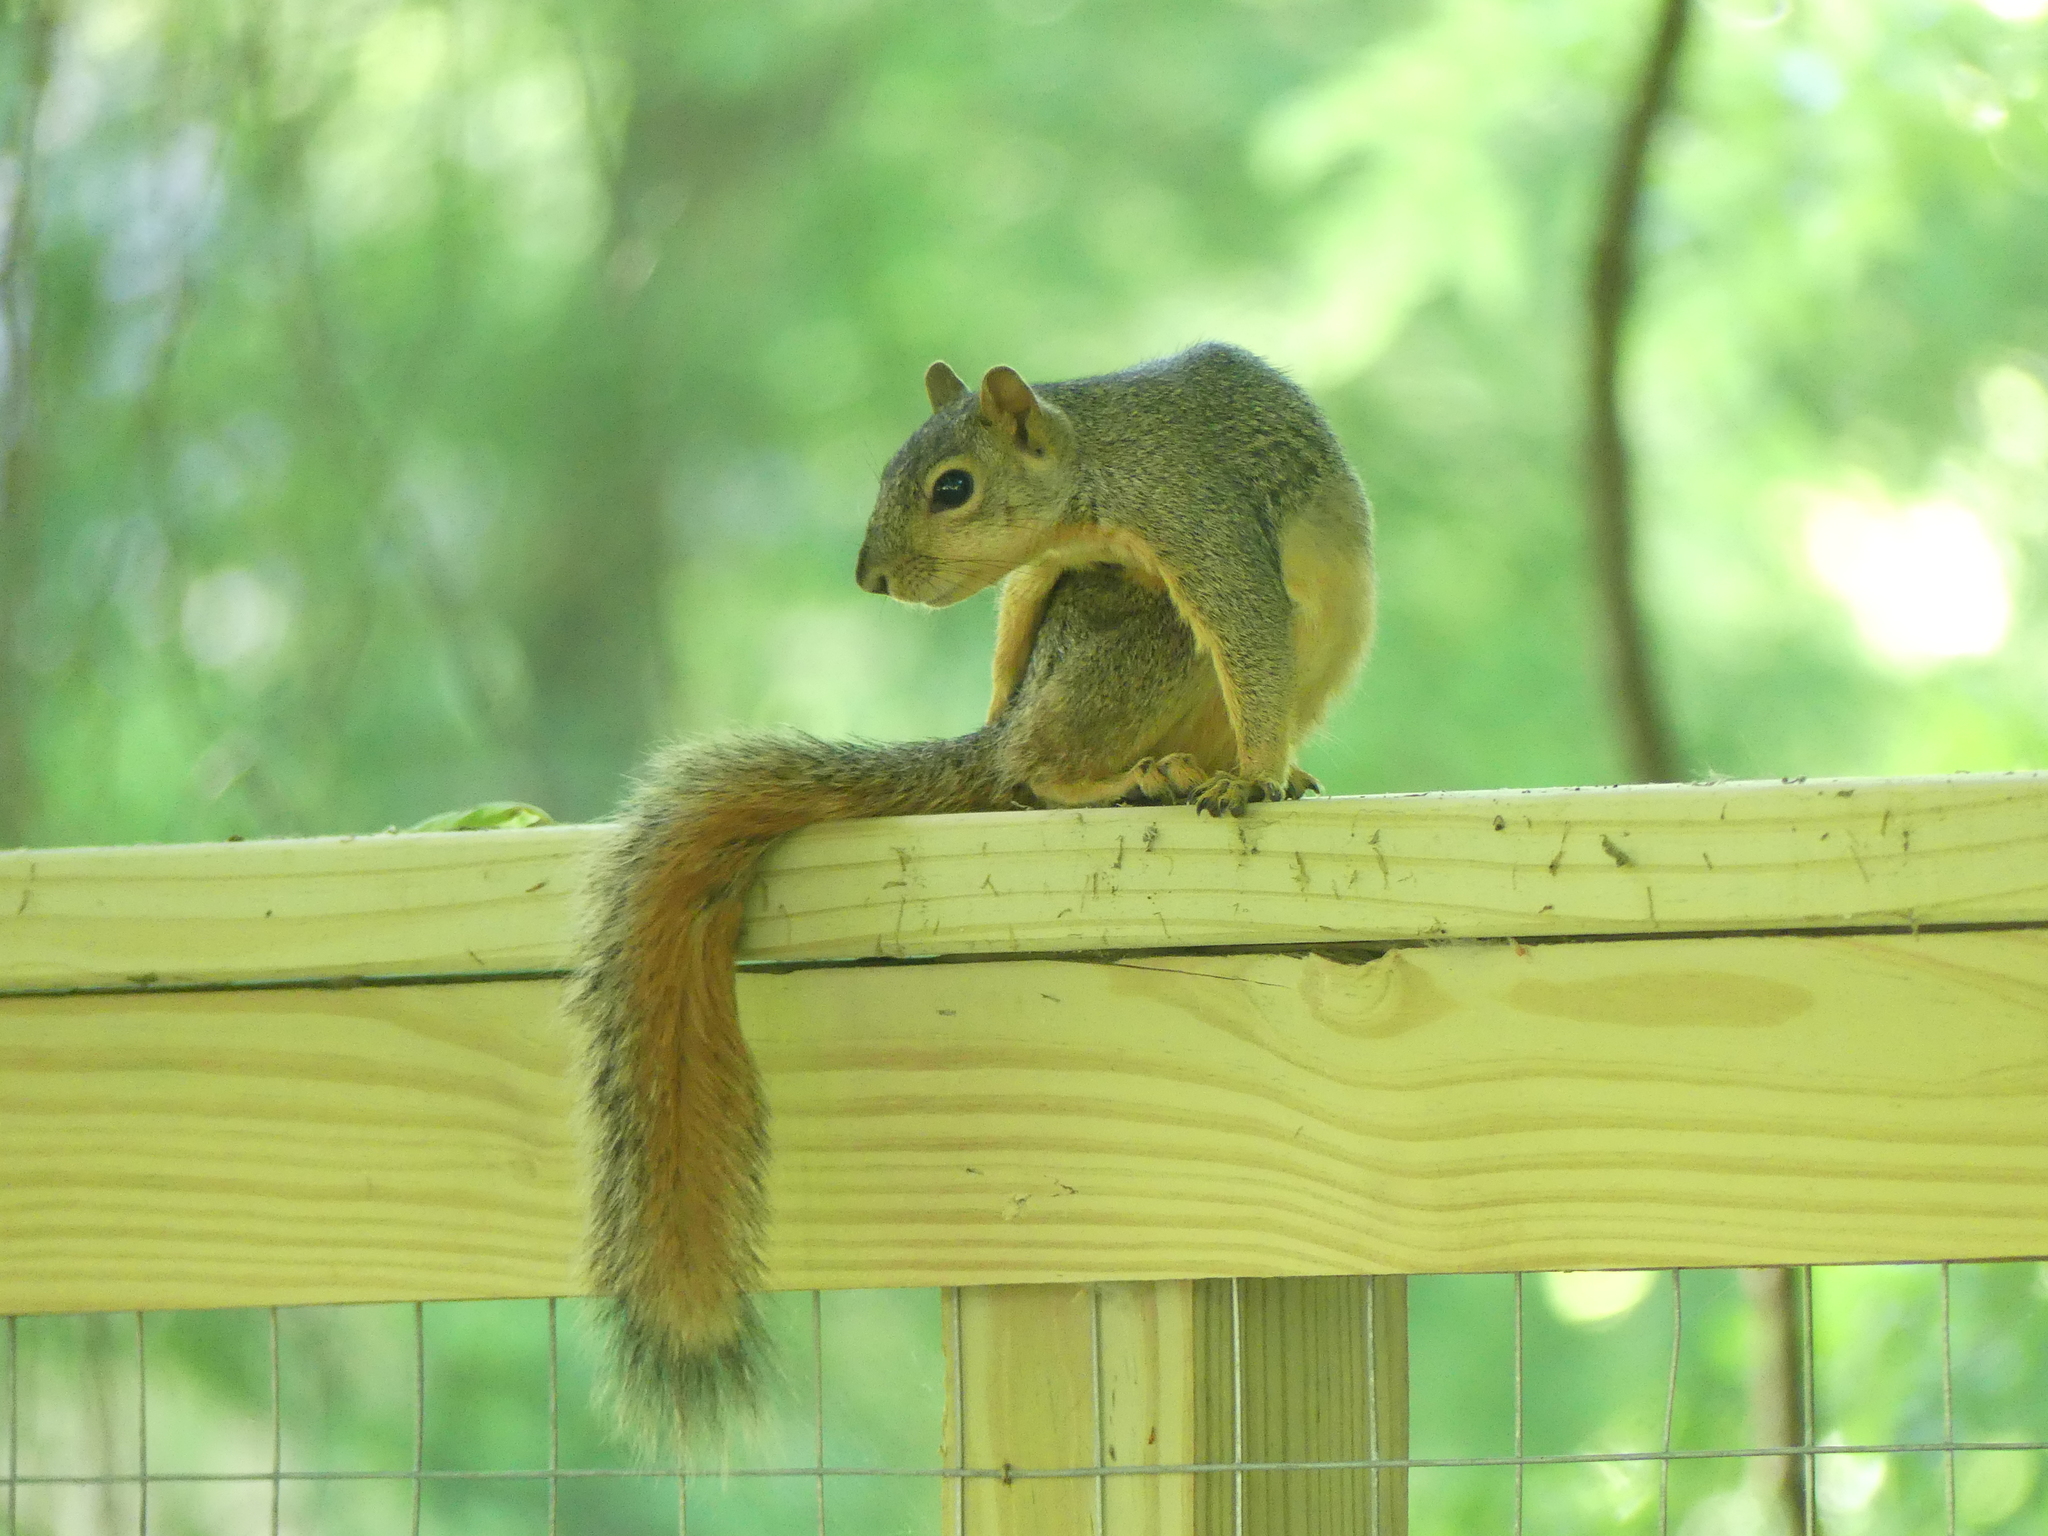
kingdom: Animalia
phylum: Chordata
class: Mammalia
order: Rodentia
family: Sciuridae
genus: Sciurus
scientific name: Sciurus niger
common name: Fox squirrel
